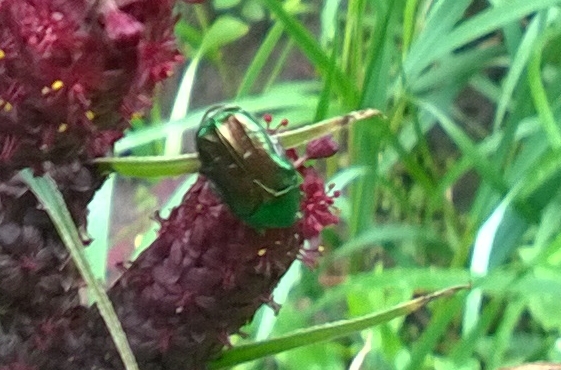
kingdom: Animalia
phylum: Arthropoda
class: Insecta
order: Coleoptera
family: Scarabaeidae
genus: Cetonia
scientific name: Cetonia aurata
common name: Rose chafer
